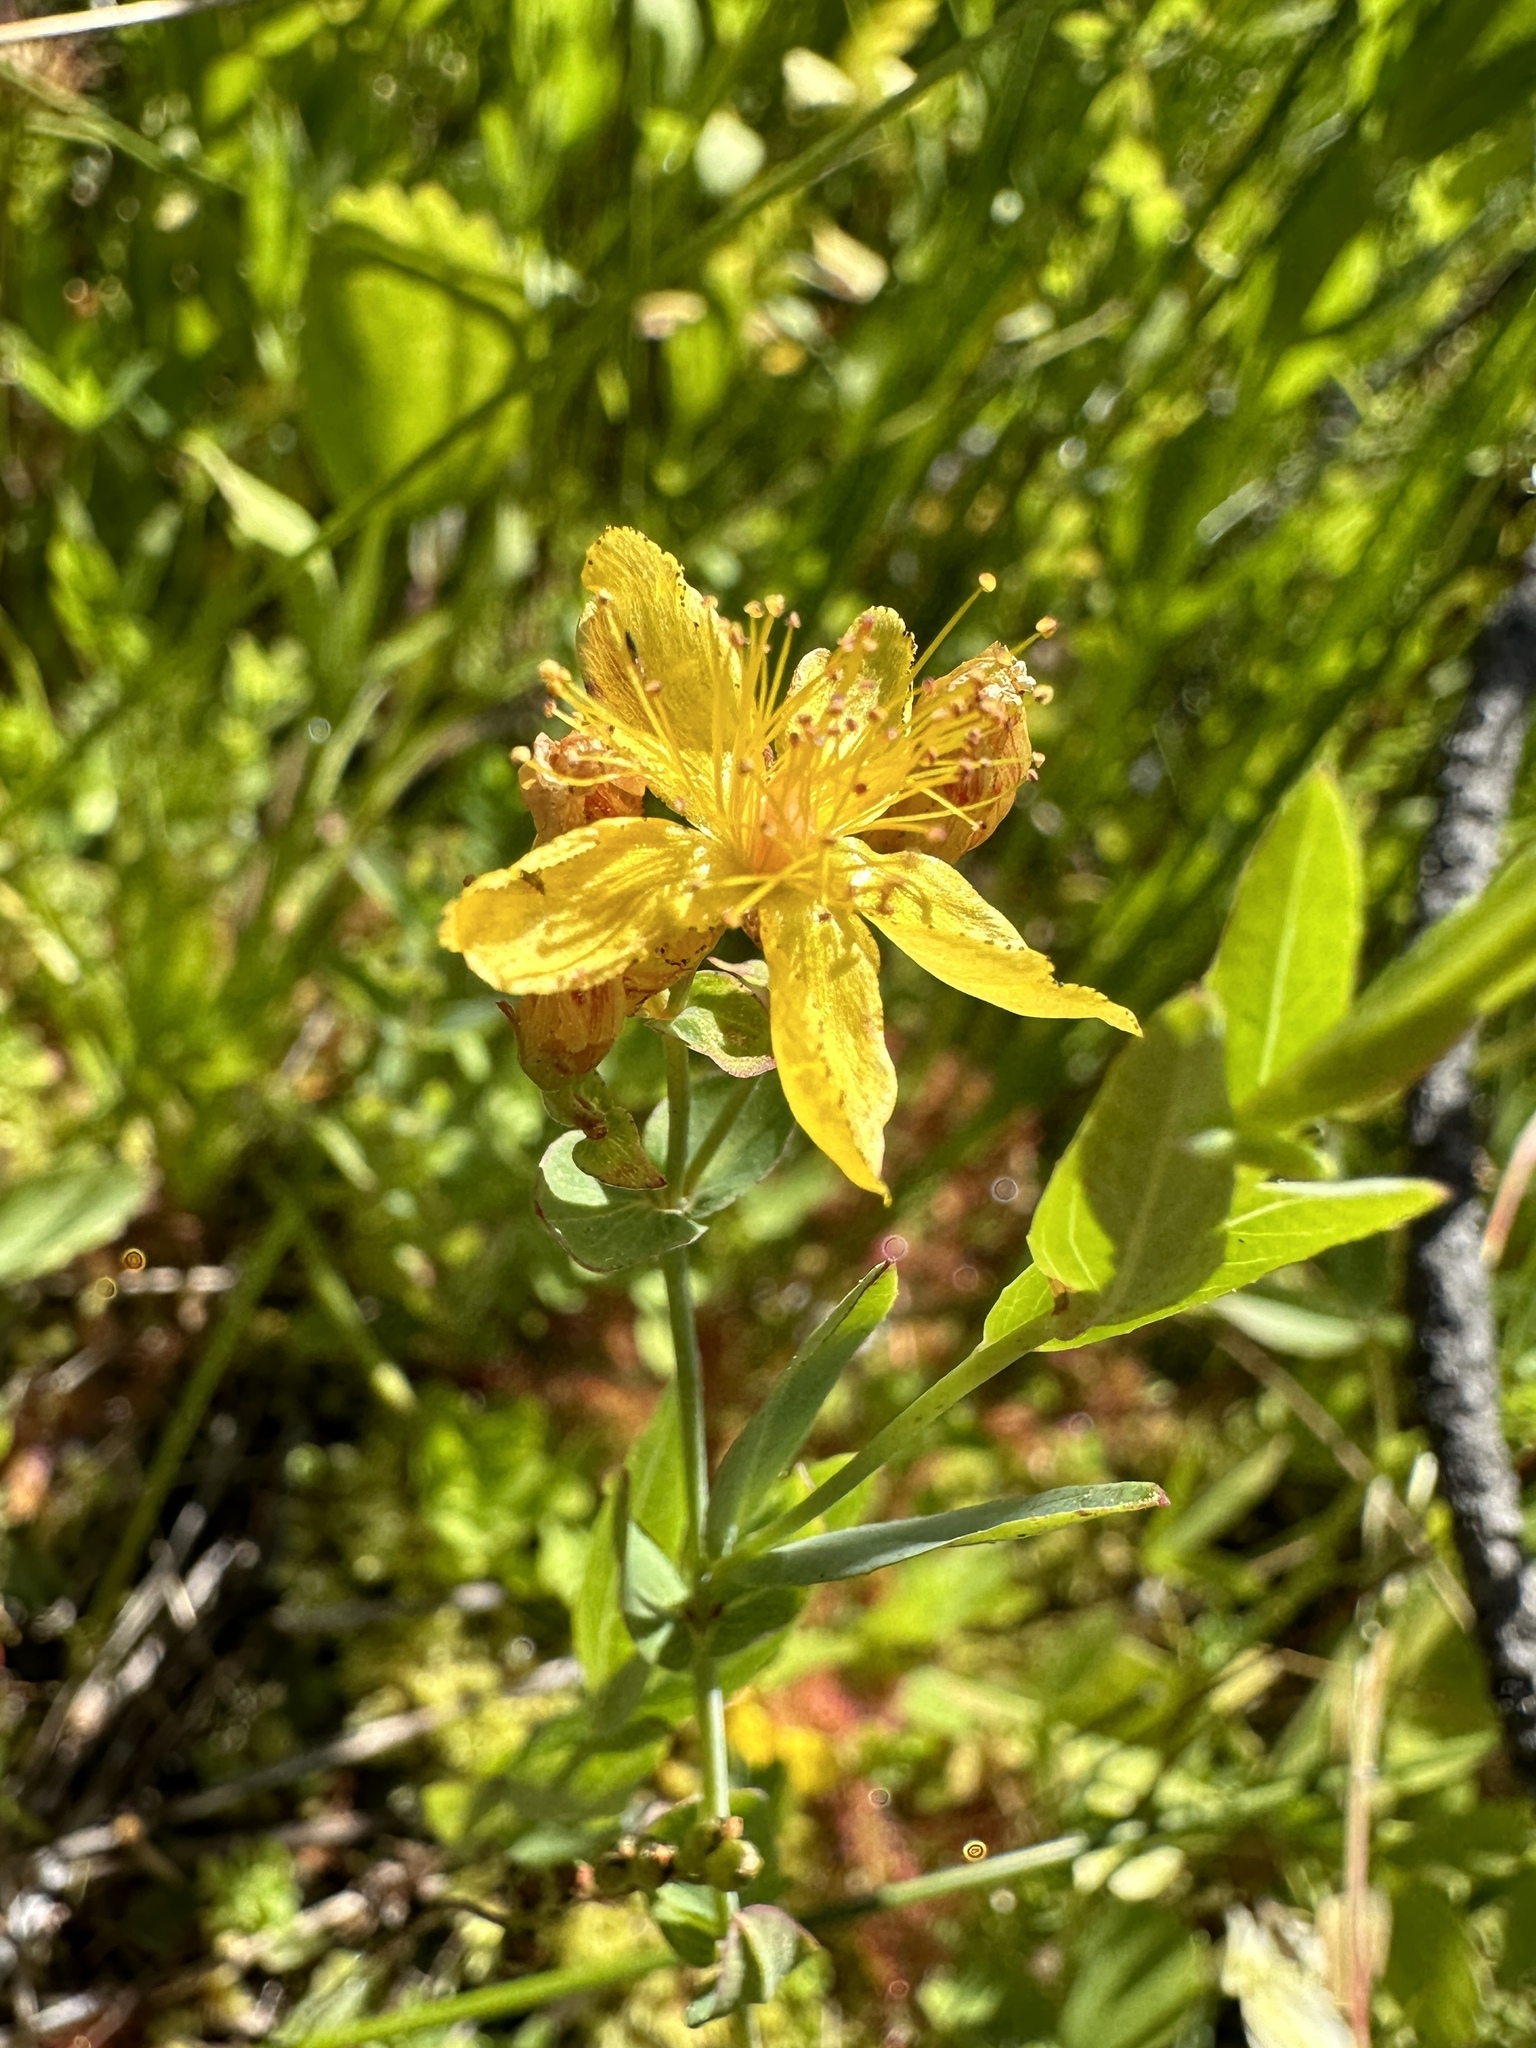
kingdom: Plantae
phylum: Tracheophyta
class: Magnoliopsida
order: Malpighiales
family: Hypericaceae
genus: Hypericum
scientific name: Hypericum scouleri
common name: Scouler's st. john's-wort
